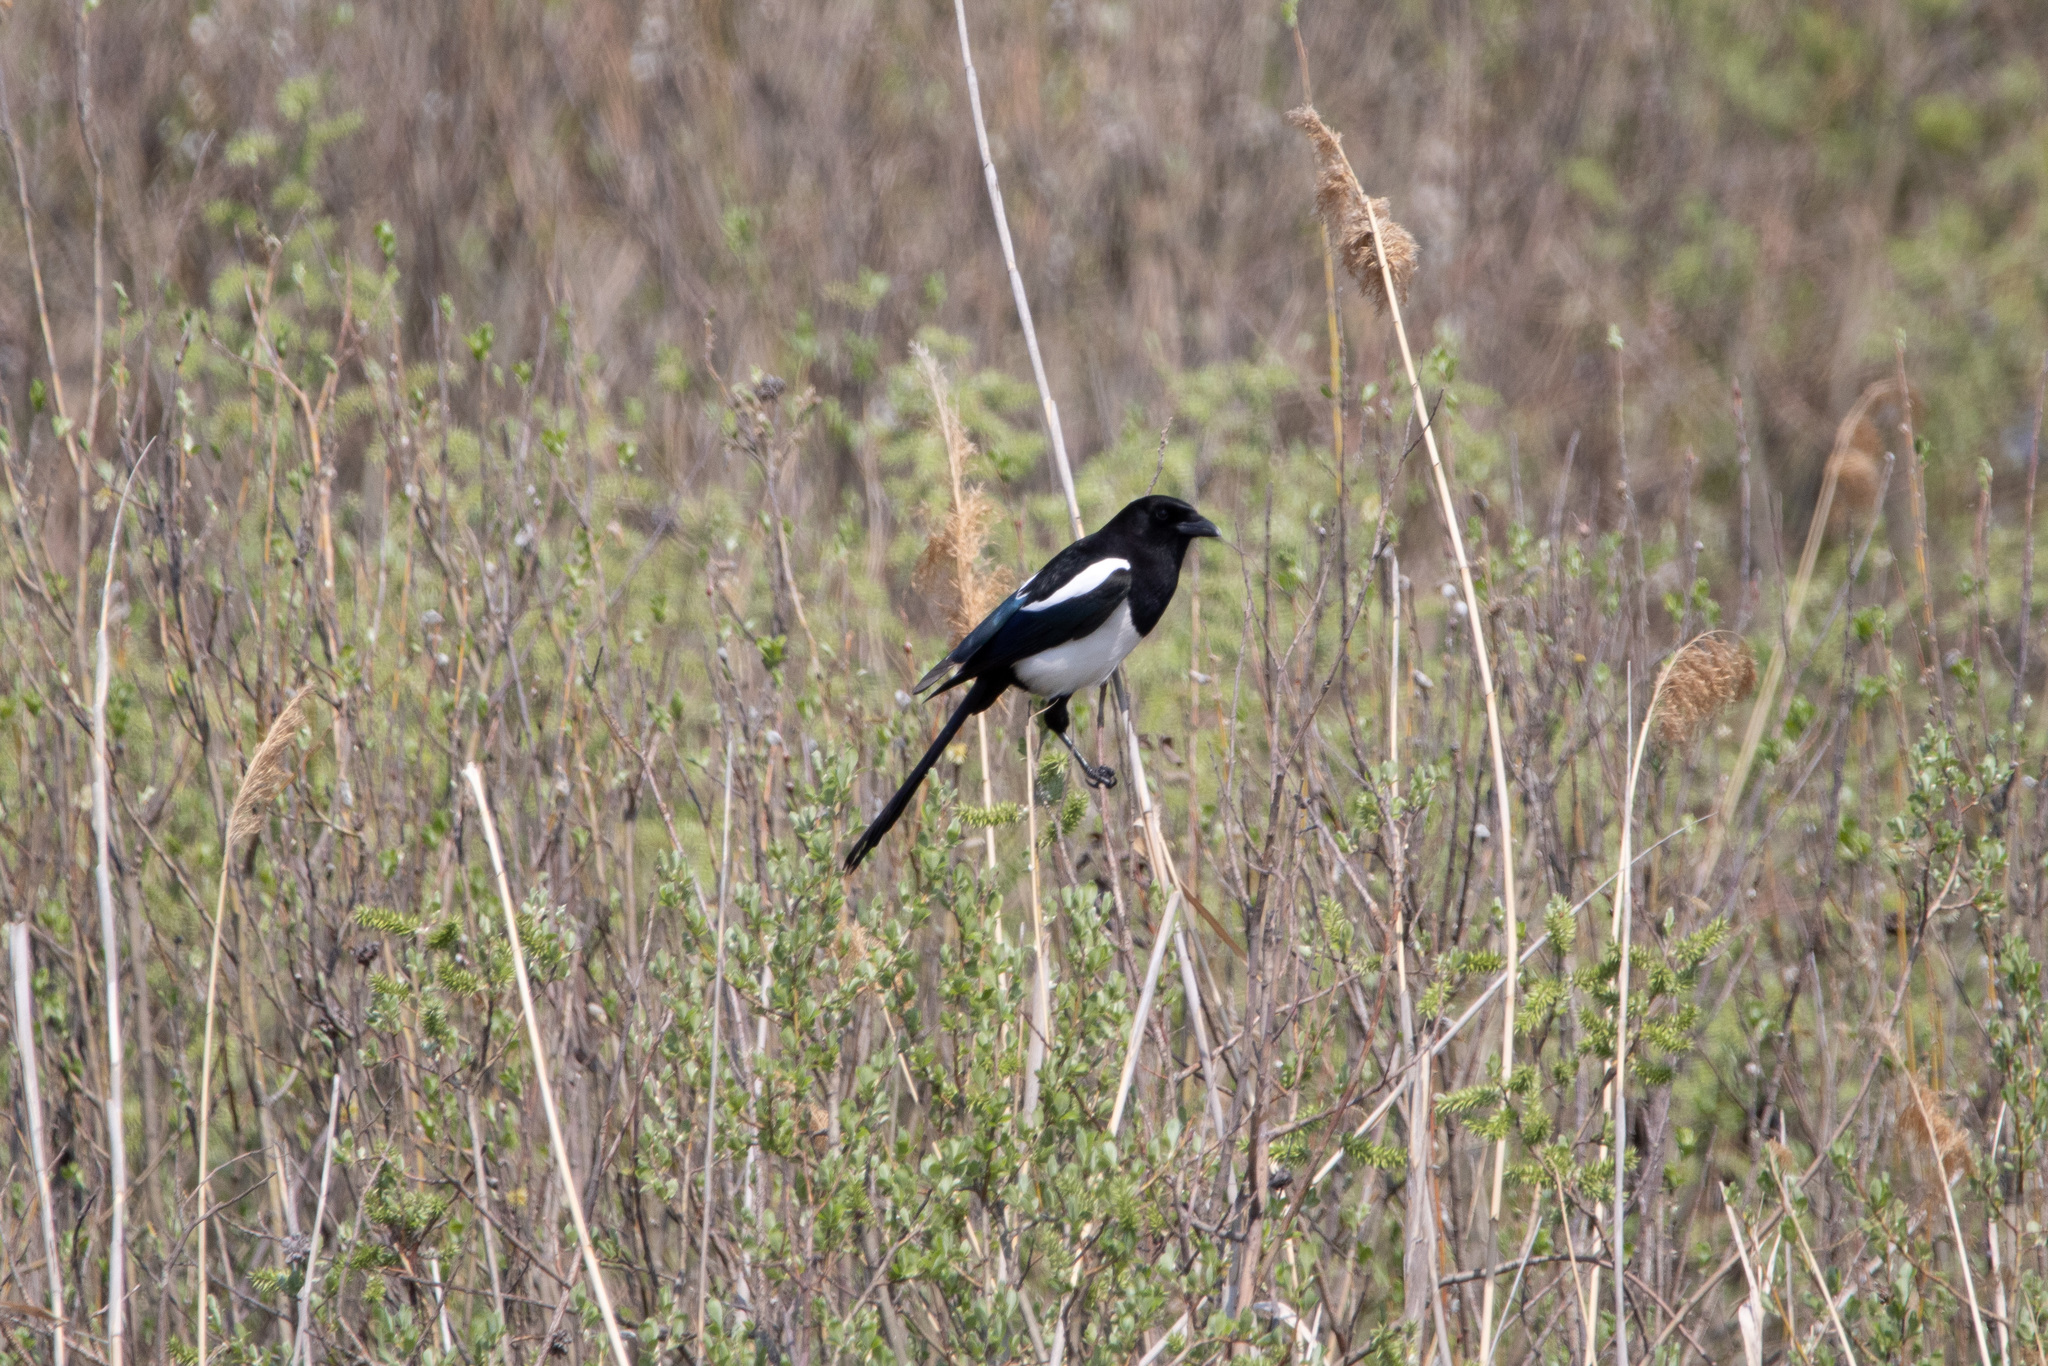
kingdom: Animalia
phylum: Chordata
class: Aves
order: Passeriformes
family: Corvidae
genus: Pica
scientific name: Pica pica
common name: Eurasian magpie
